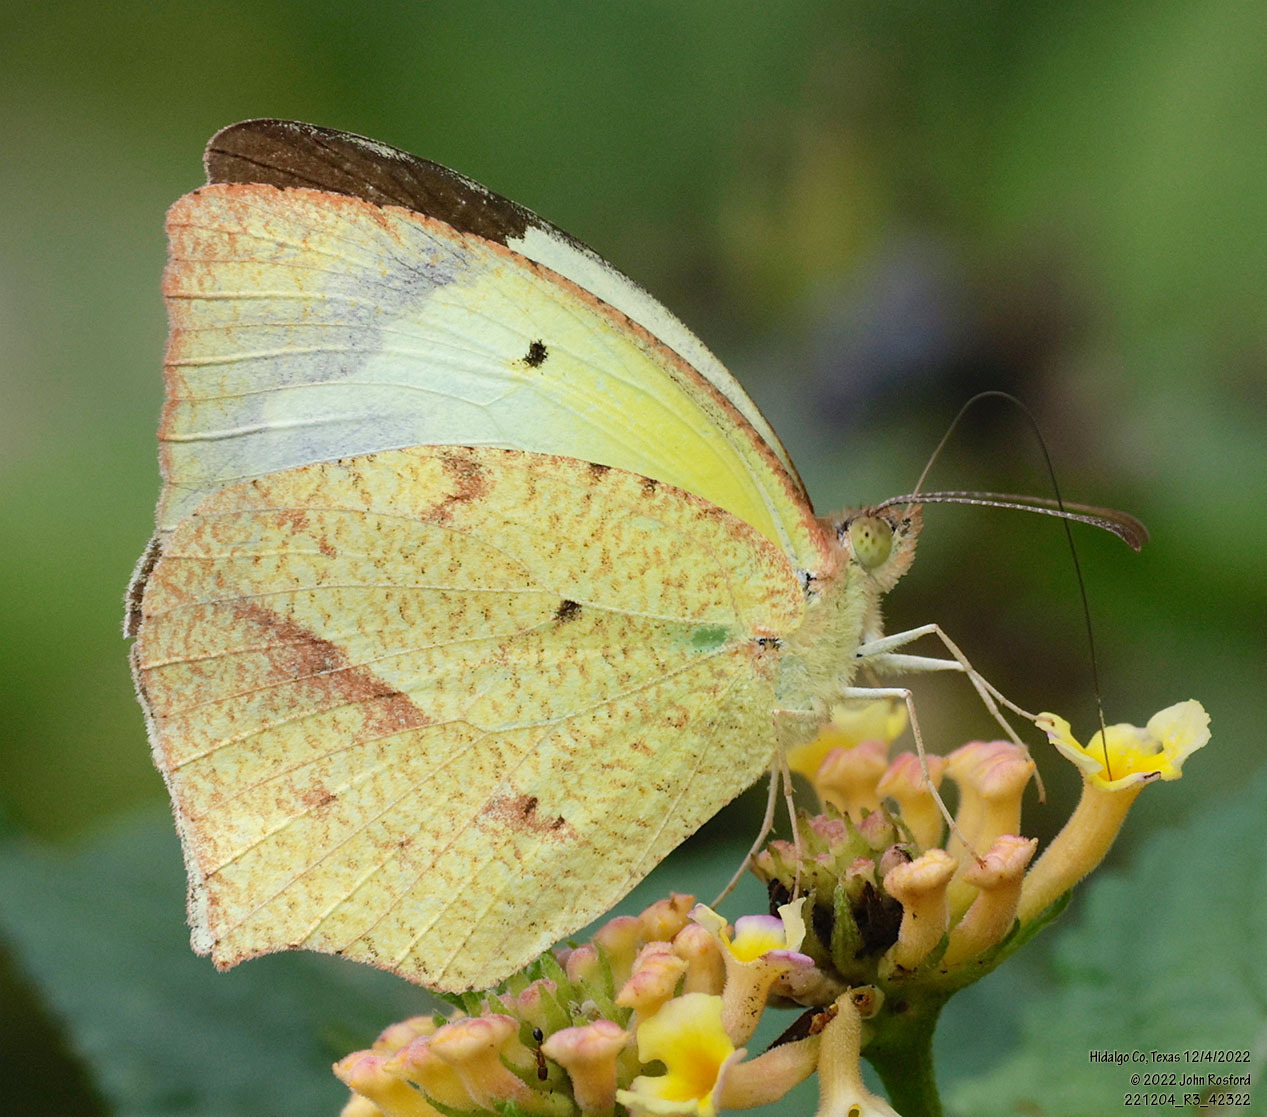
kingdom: Animalia
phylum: Arthropoda
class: Insecta
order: Lepidoptera
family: Pieridae
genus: Abaeis
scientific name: Abaeis mexicana
